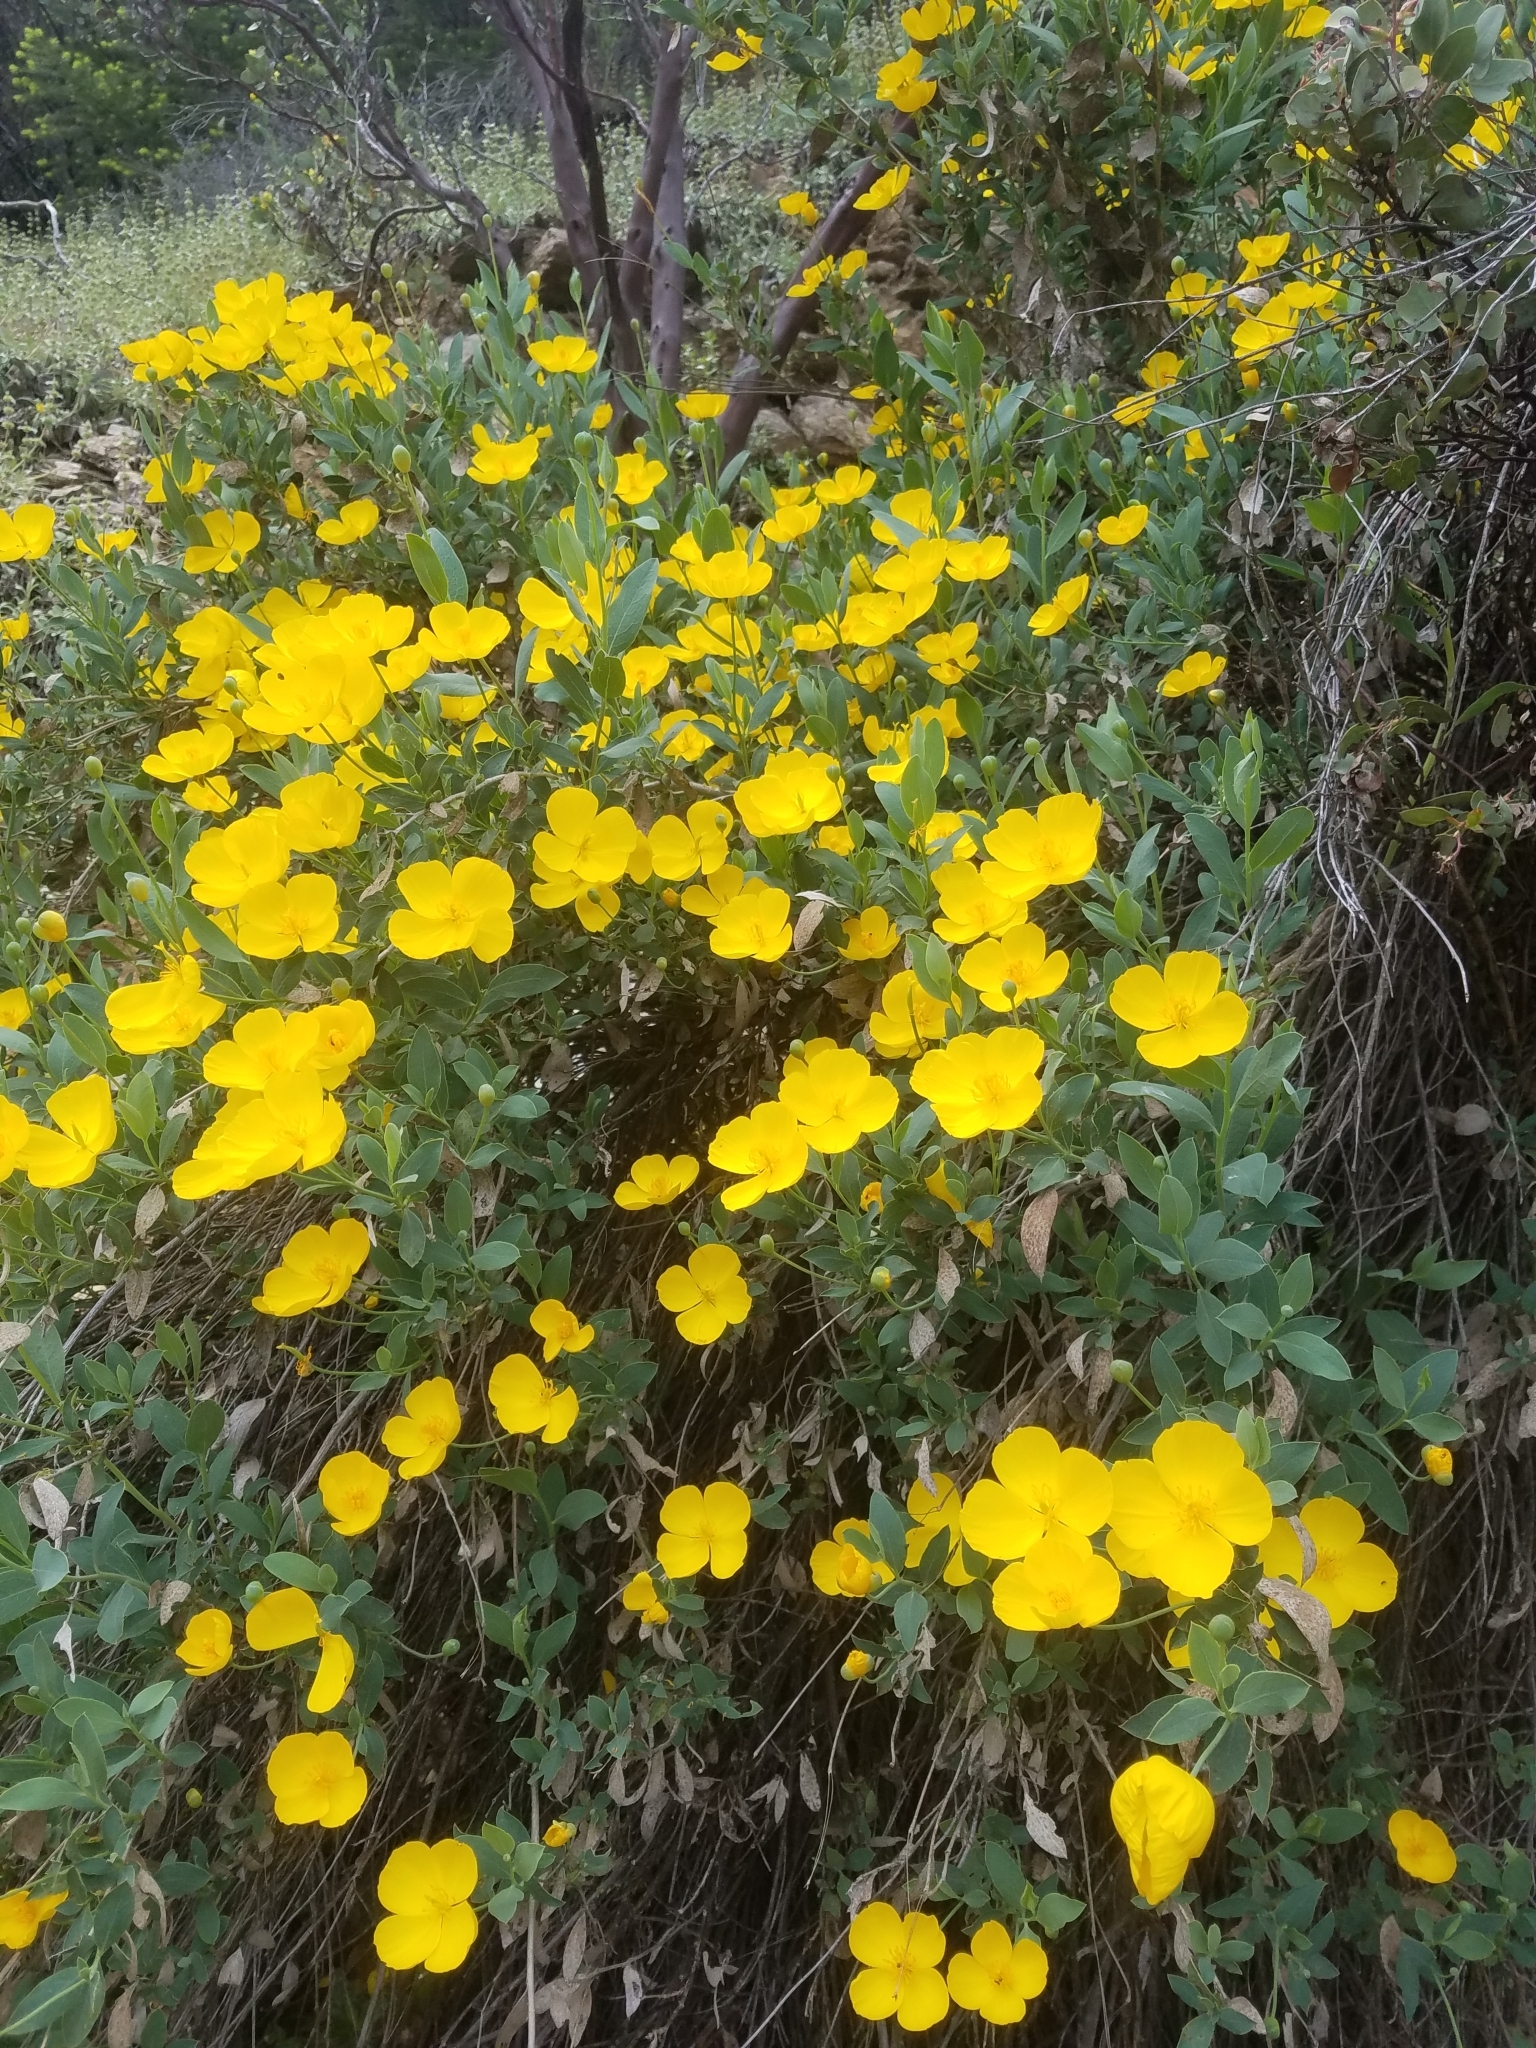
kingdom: Plantae
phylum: Tracheophyta
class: Magnoliopsida
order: Ranunculales
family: Papaveraceae
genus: Dendromecon
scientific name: Dendromecon rigida
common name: Tree poppy
